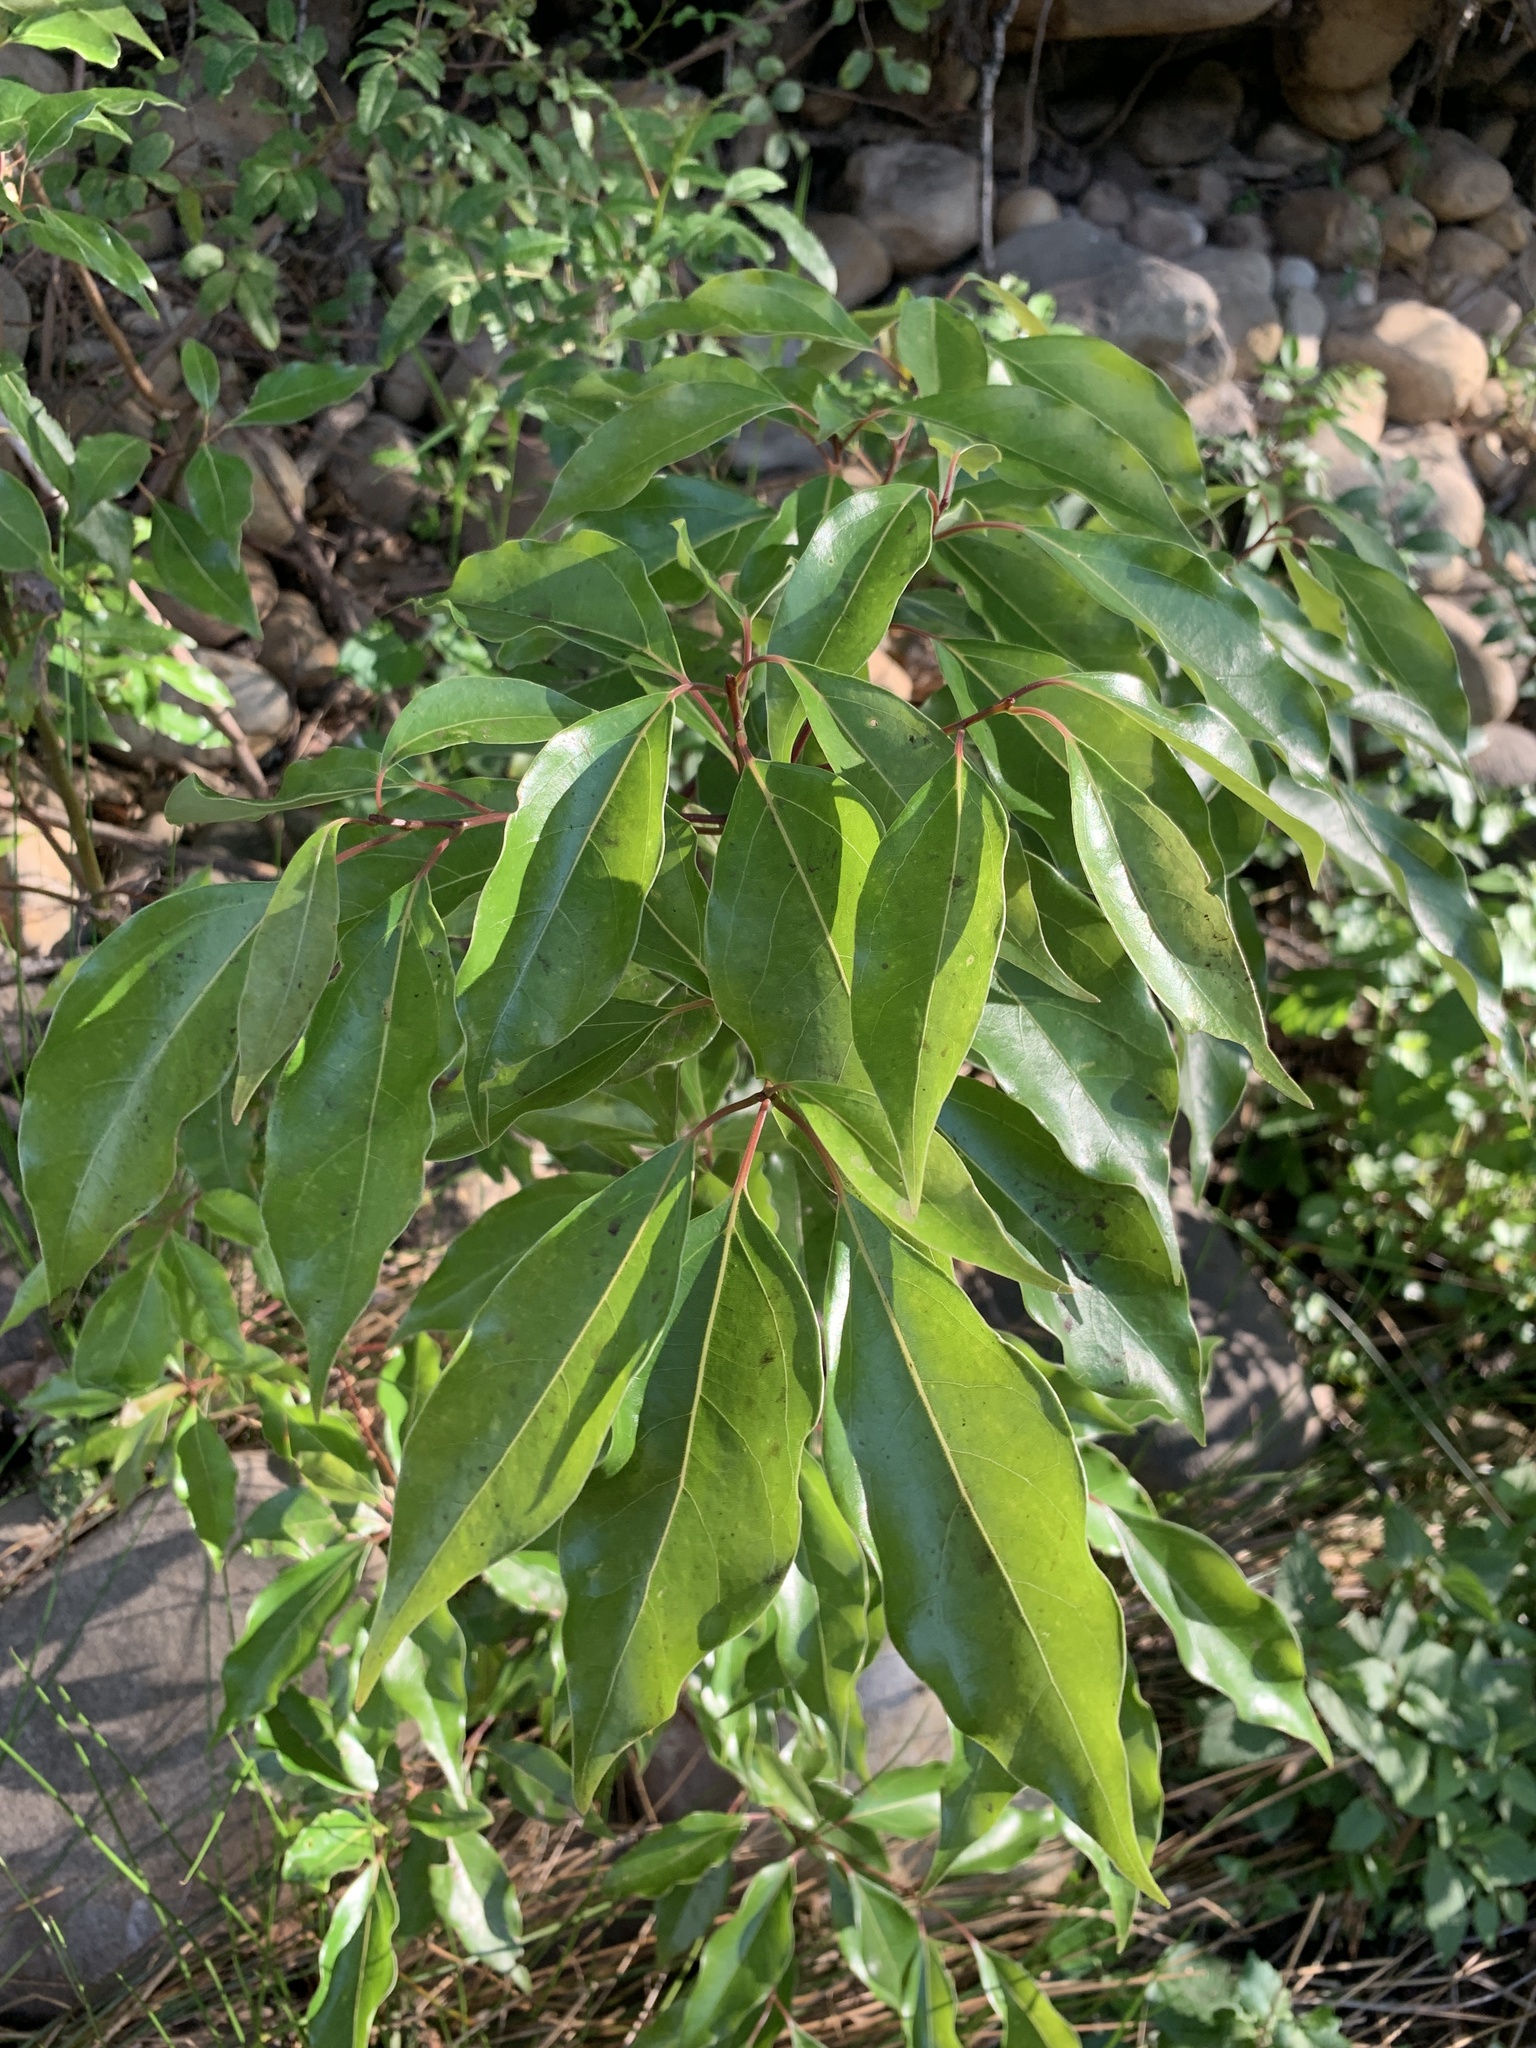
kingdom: Plantae
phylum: Tracheophyta
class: Magnoliopsida
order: Laurales
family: Lauraceae
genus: Cinnamomum
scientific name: Cinnamomum camphora
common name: Camphortree
